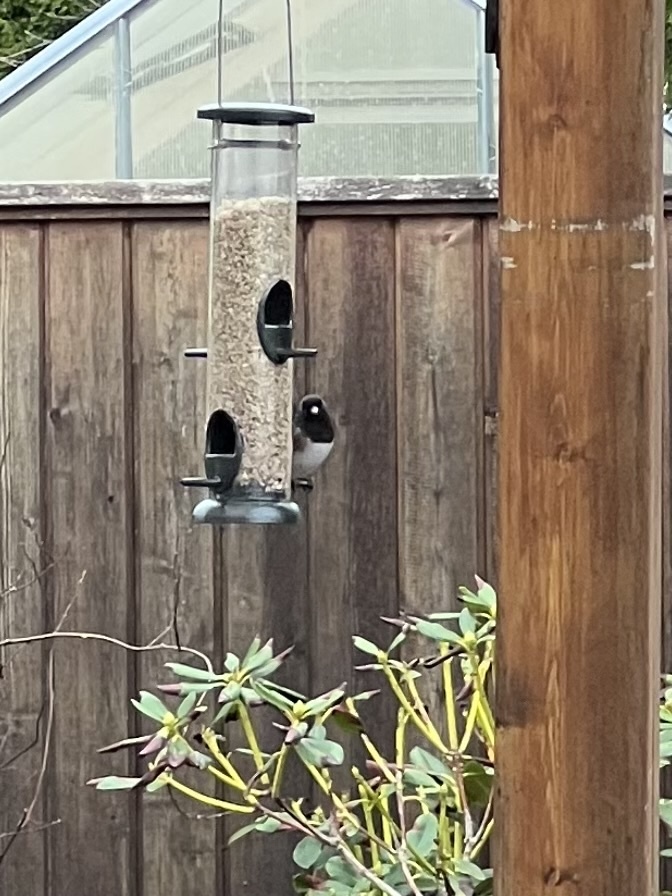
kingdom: Animalia
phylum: Chordata
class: Aves
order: Passeriformes
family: Passerellidae
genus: Junco
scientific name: Junco hyemalis
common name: Dark-eyed junco
